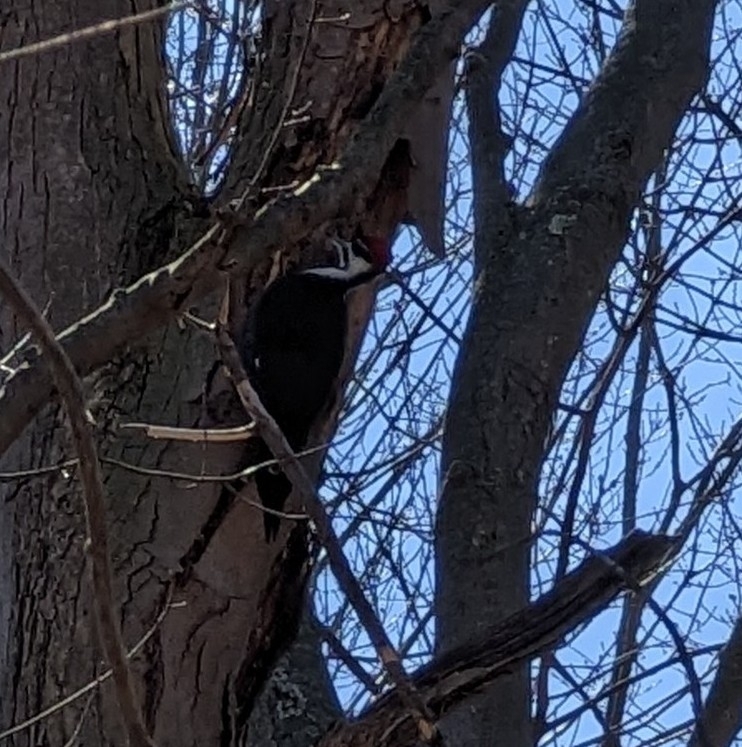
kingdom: Animalia
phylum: Chordata
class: Aves
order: Piciformes
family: Picidae
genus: Dryocopus
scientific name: Dryocopus pileatus
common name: Pileated woodpecker
